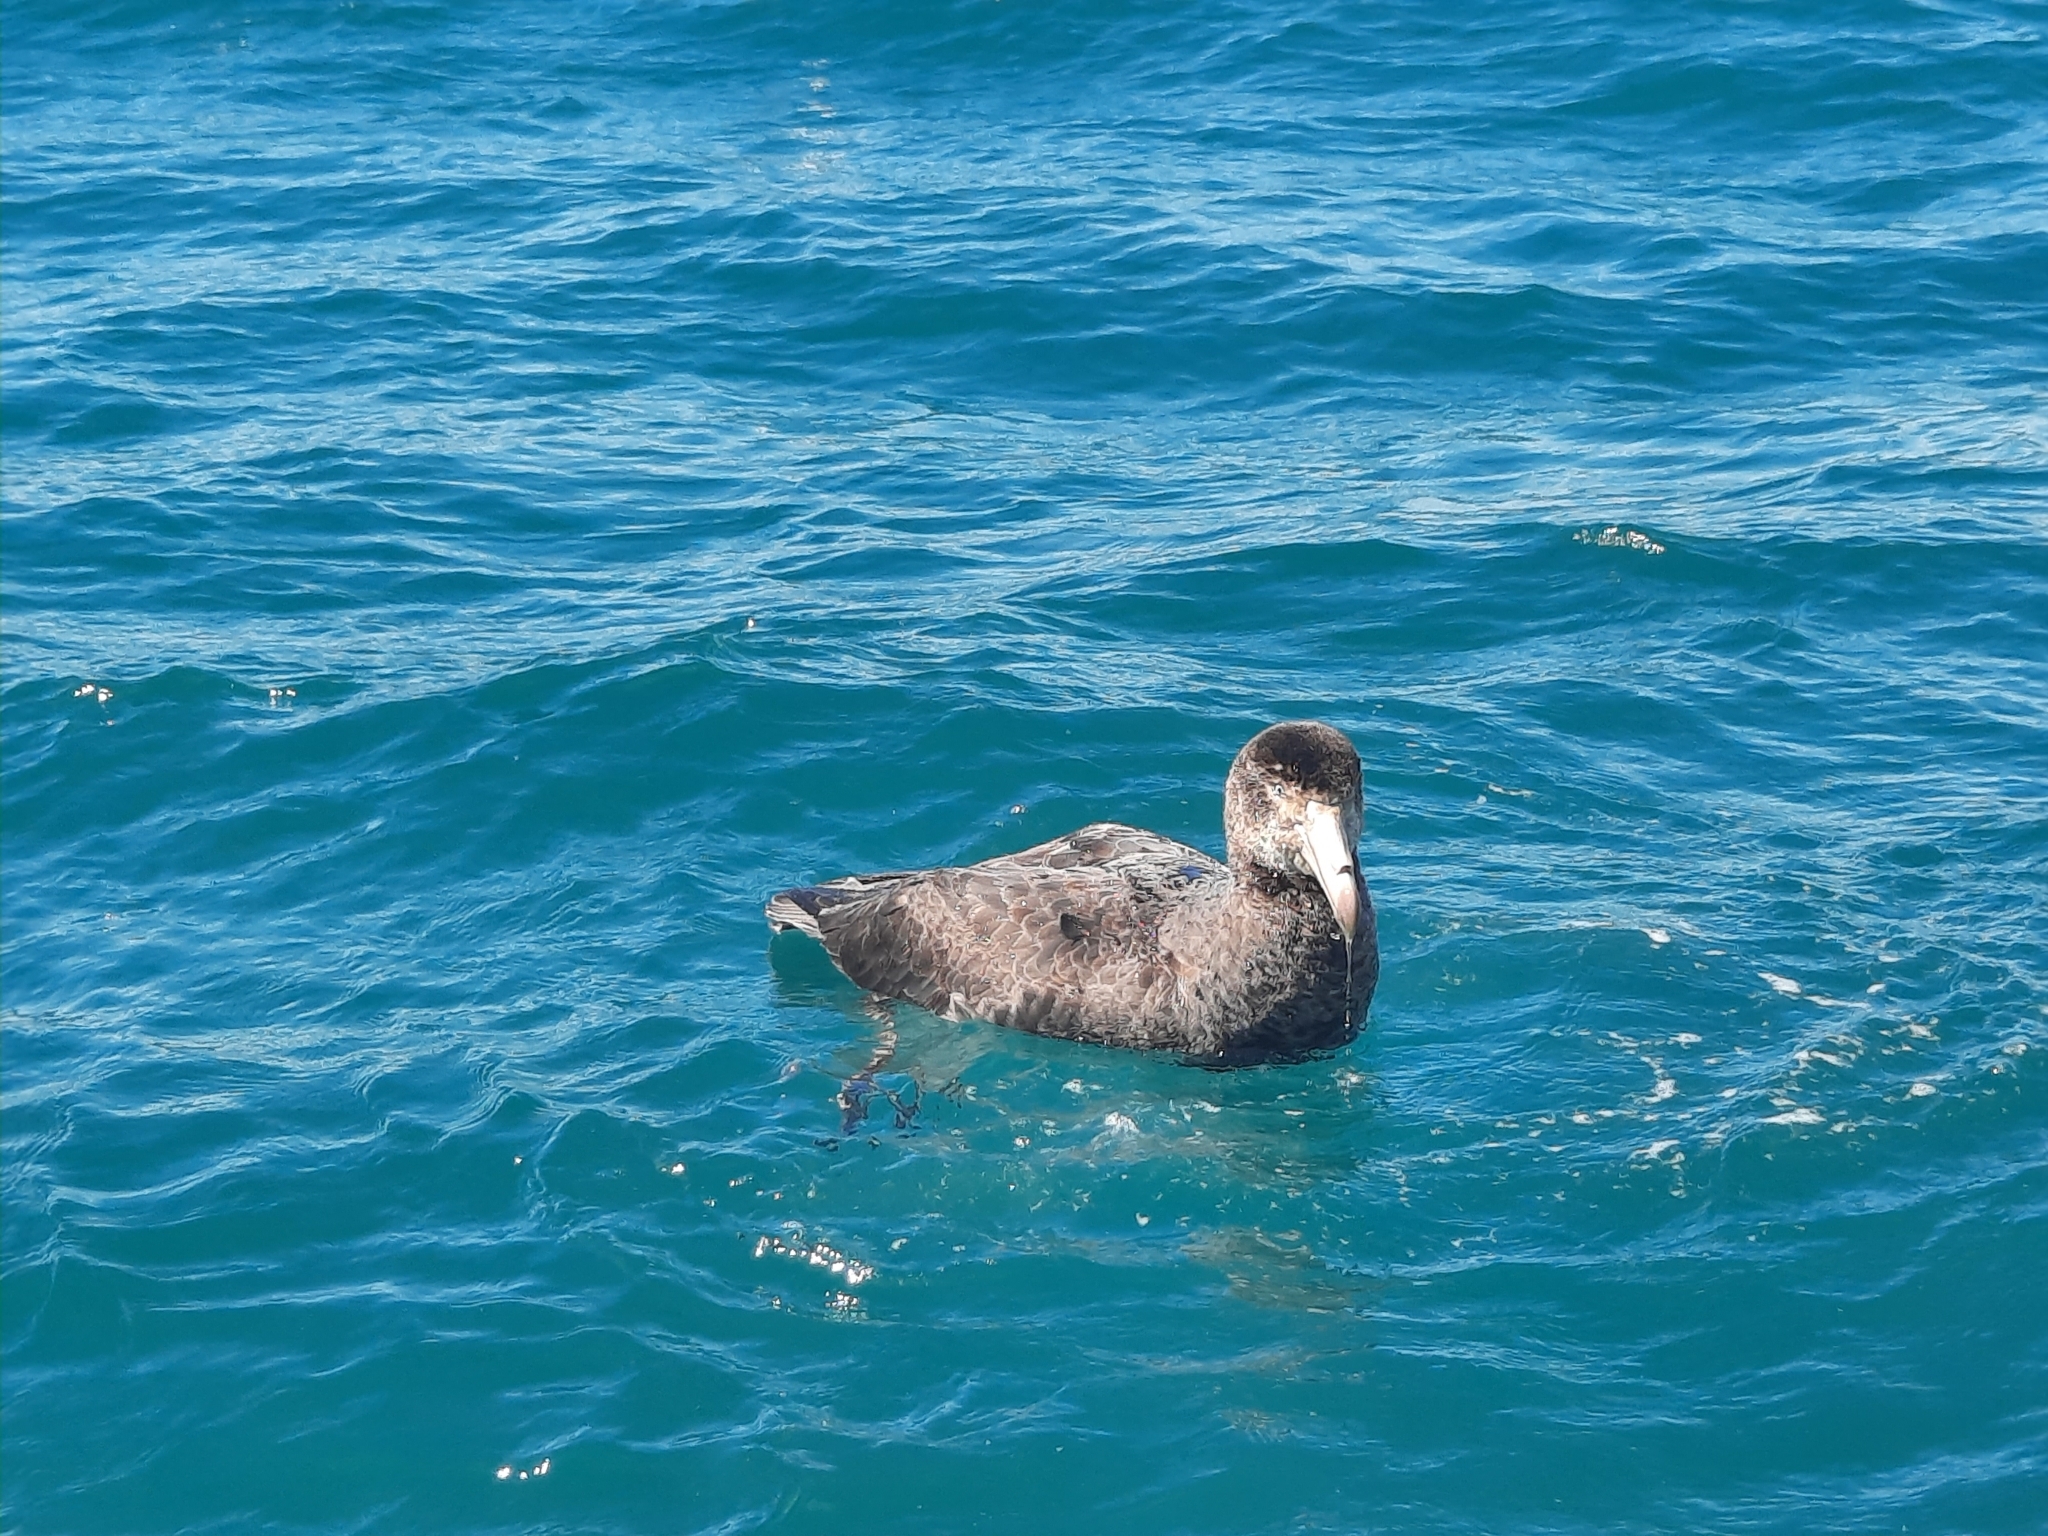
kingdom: Animalia
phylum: Chordata
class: Aves
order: Procellariiformes
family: Procellariidae
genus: Macronectes
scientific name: Macronectes halli
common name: Northern giant petrel
